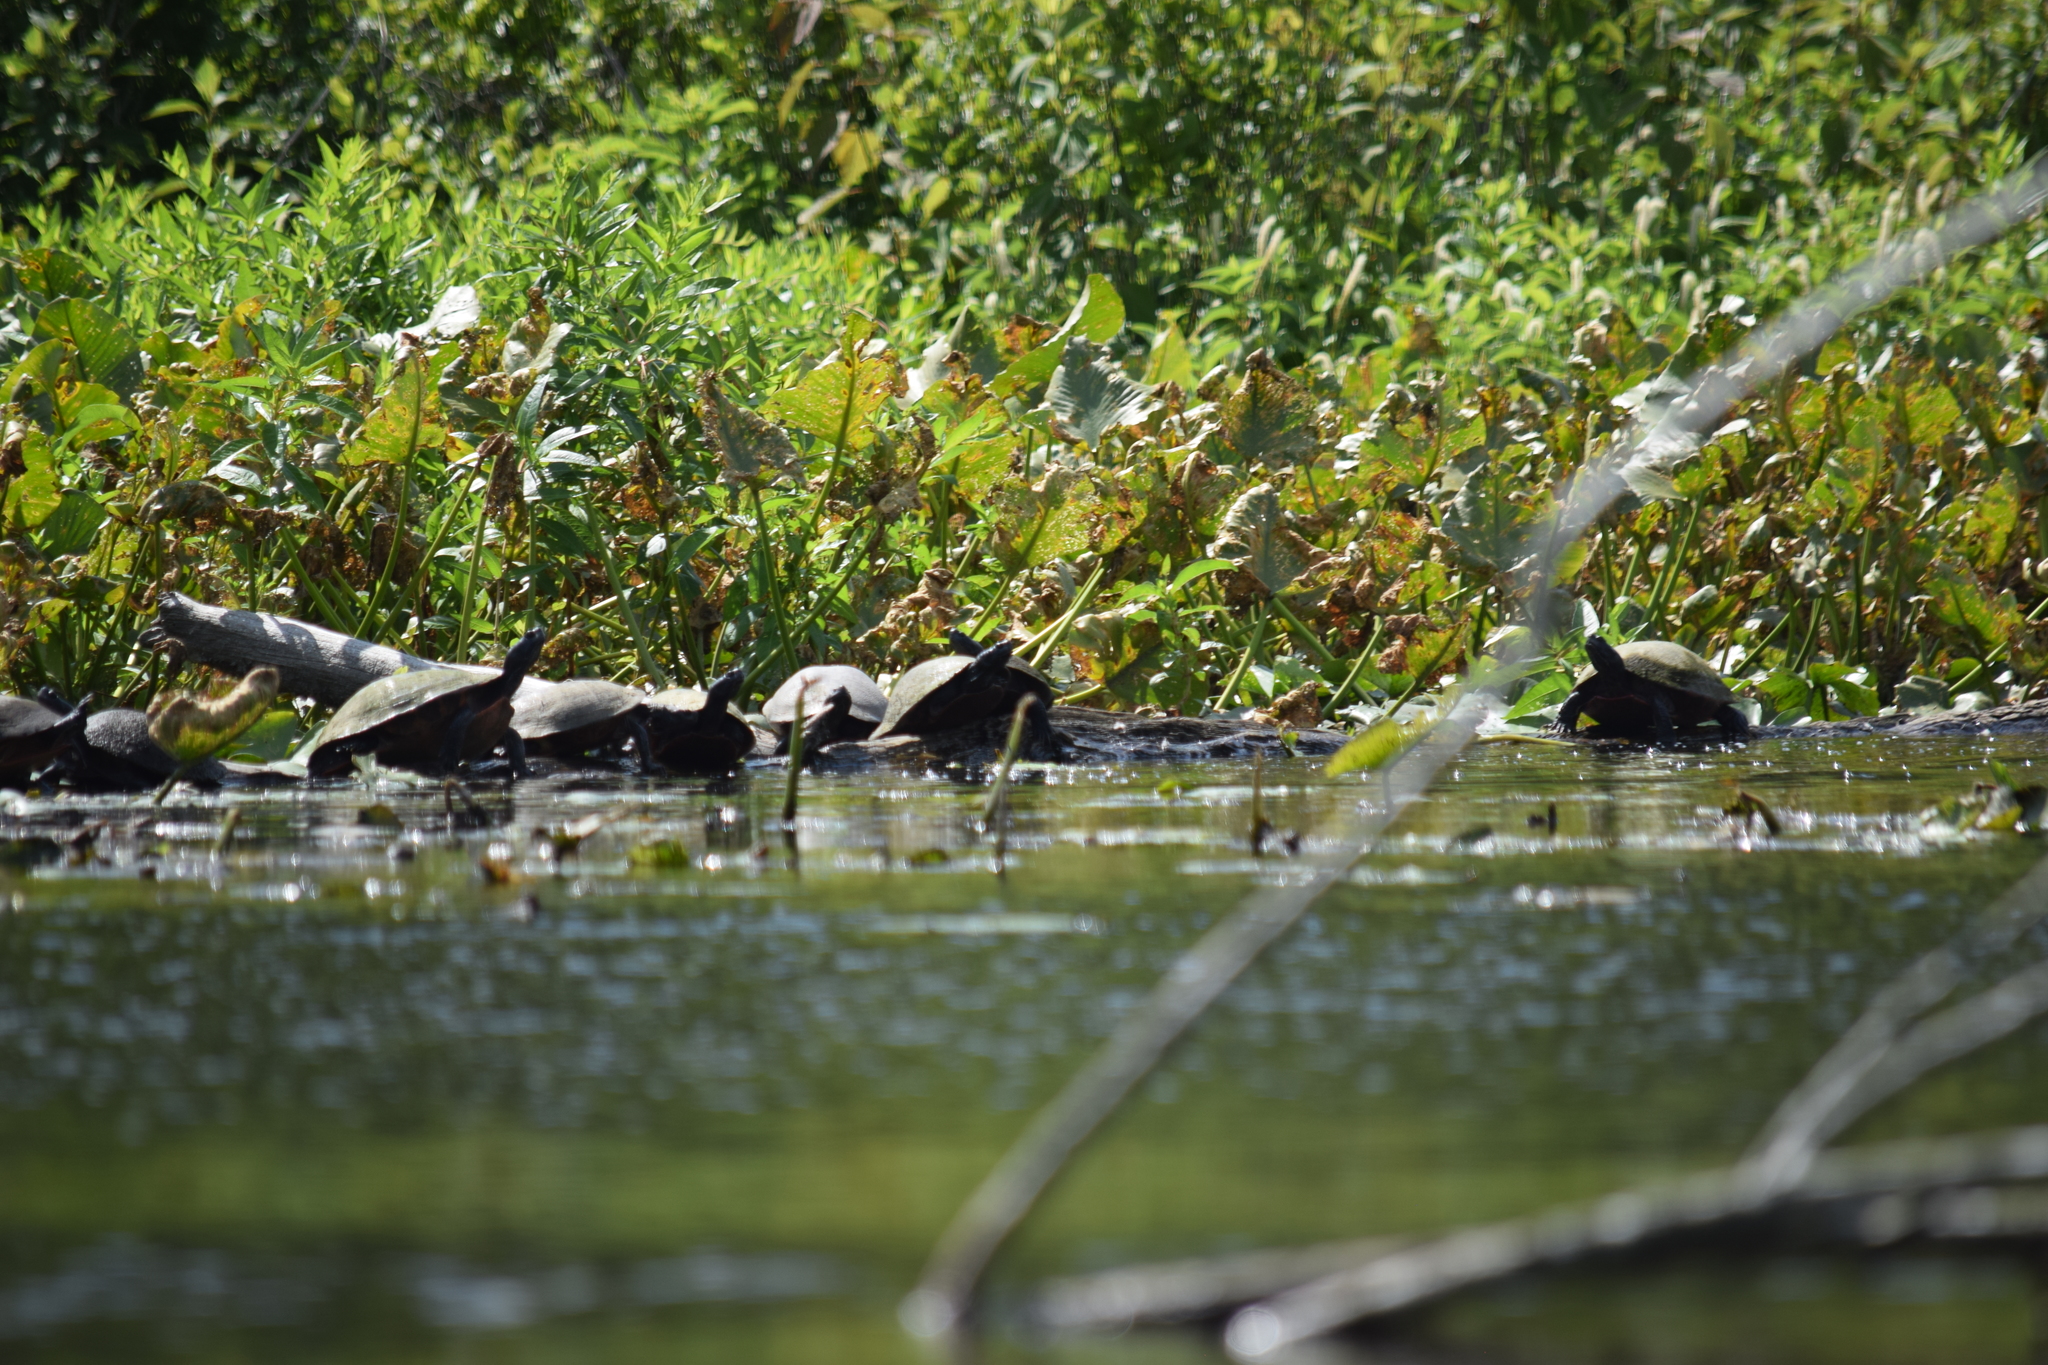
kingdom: Animalia
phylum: Chordata
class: Testudines
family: Emydidae
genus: Pseudemys
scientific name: Pseudemys rubriventris
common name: American red-bellied turtle
